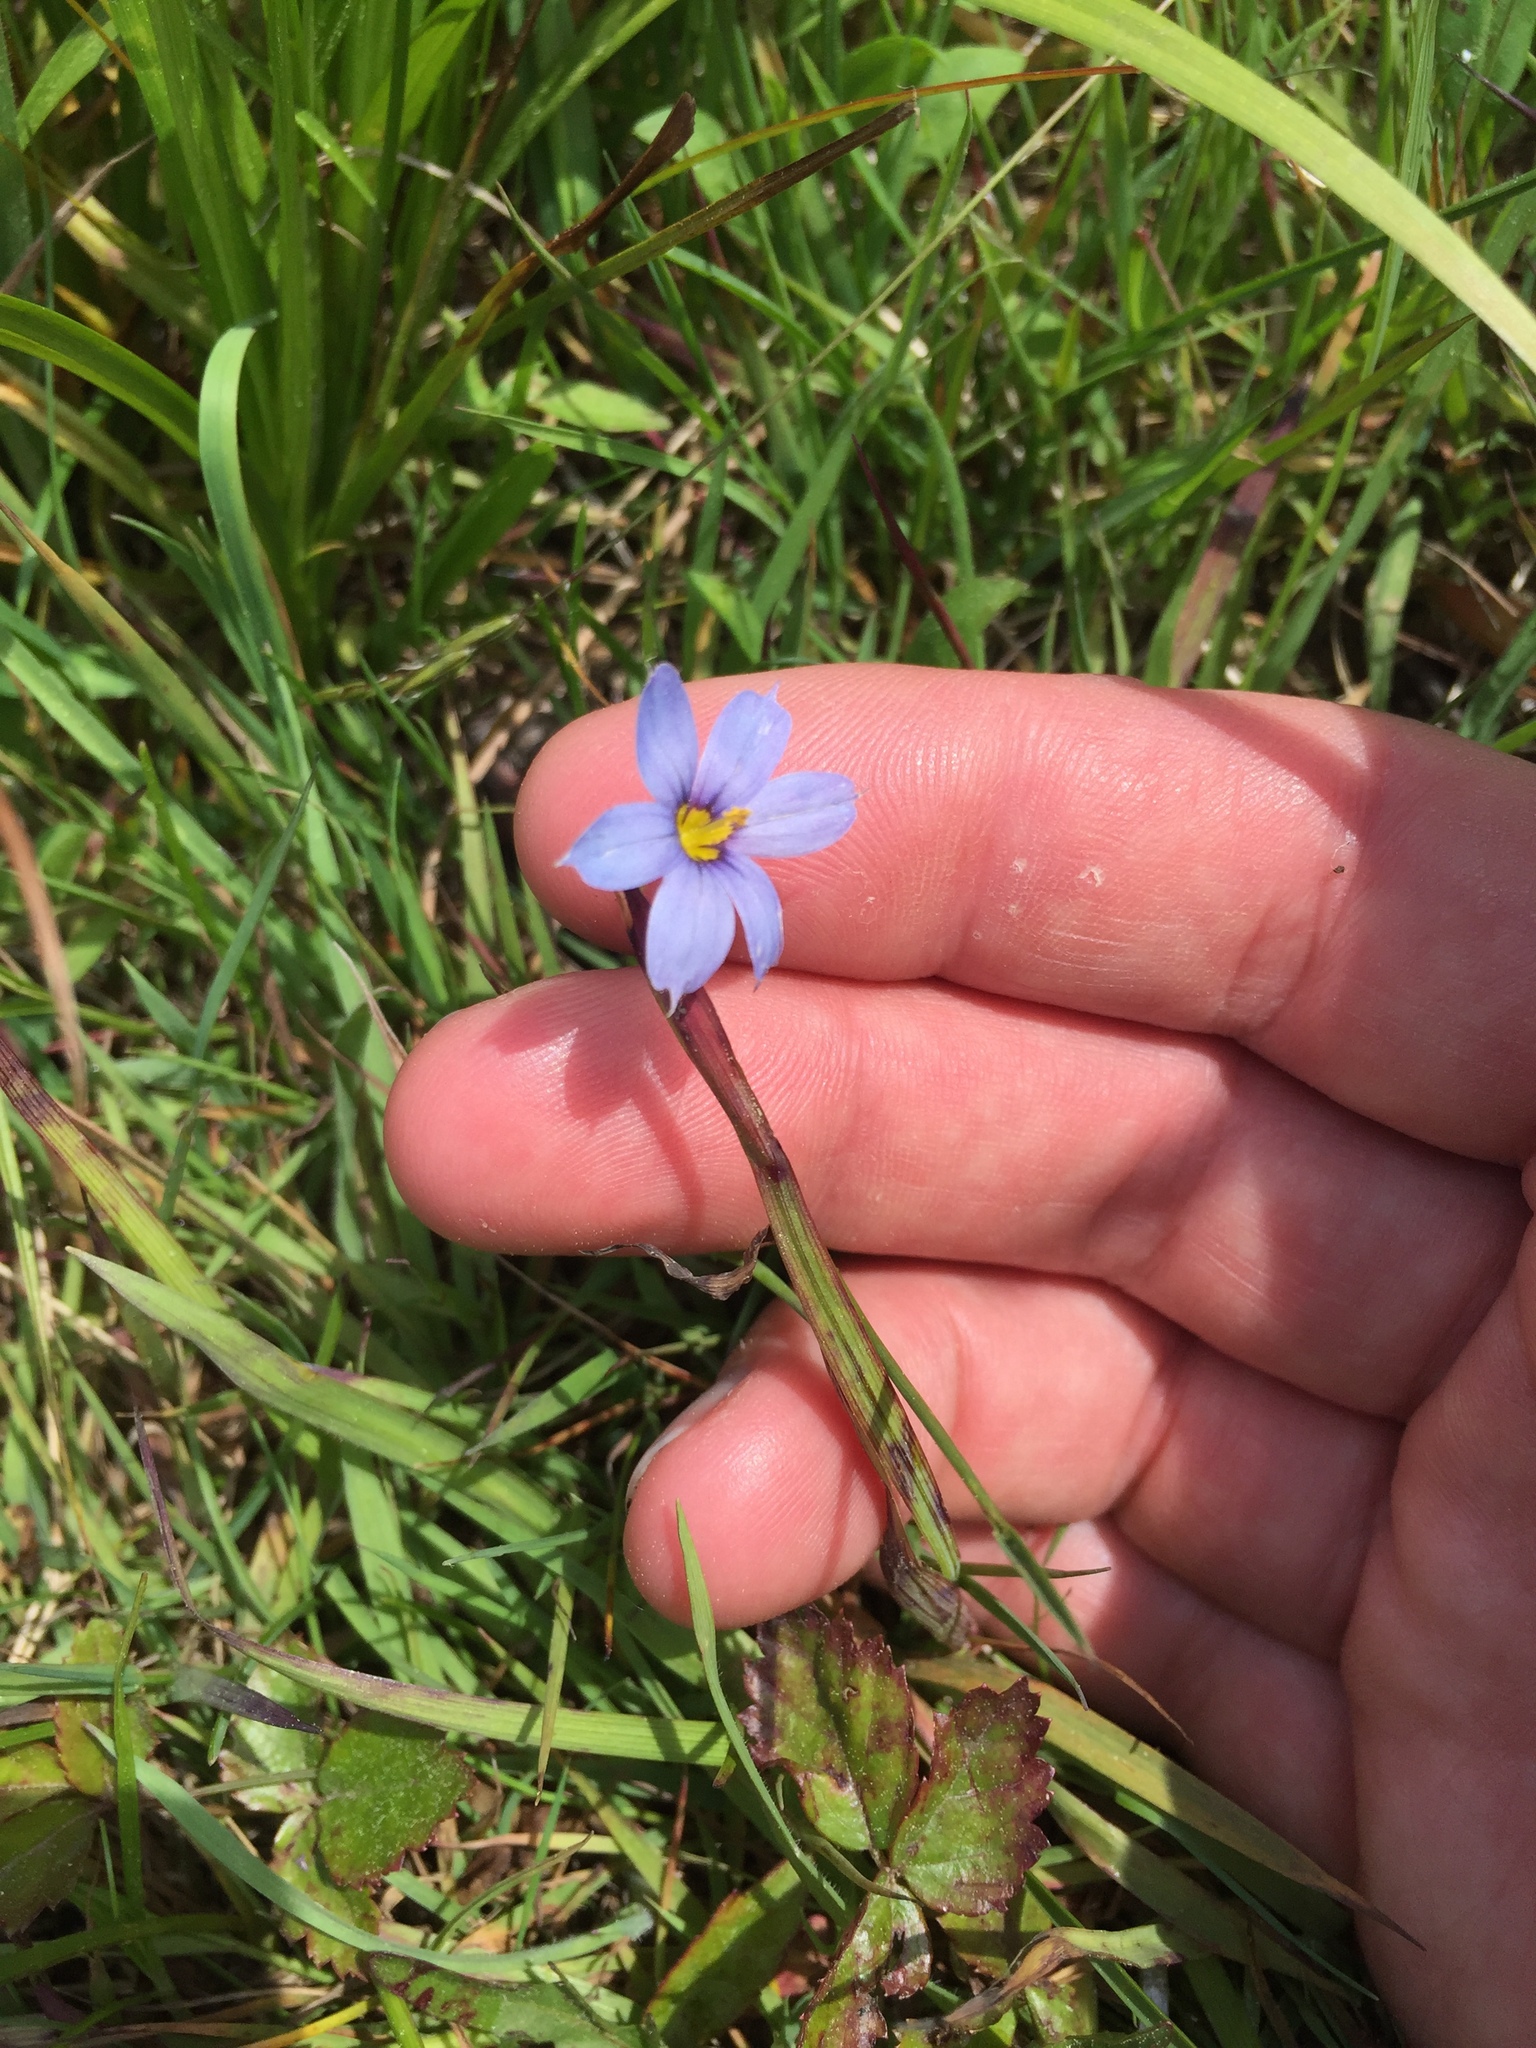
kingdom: Plantae
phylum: Tracheophyta
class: Liliopsida
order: Asparagales
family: Iridaceae
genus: Sisyrinchium
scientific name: Sisyrinchium angustifolium
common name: Narrow-leaf blue-eyed-grass
